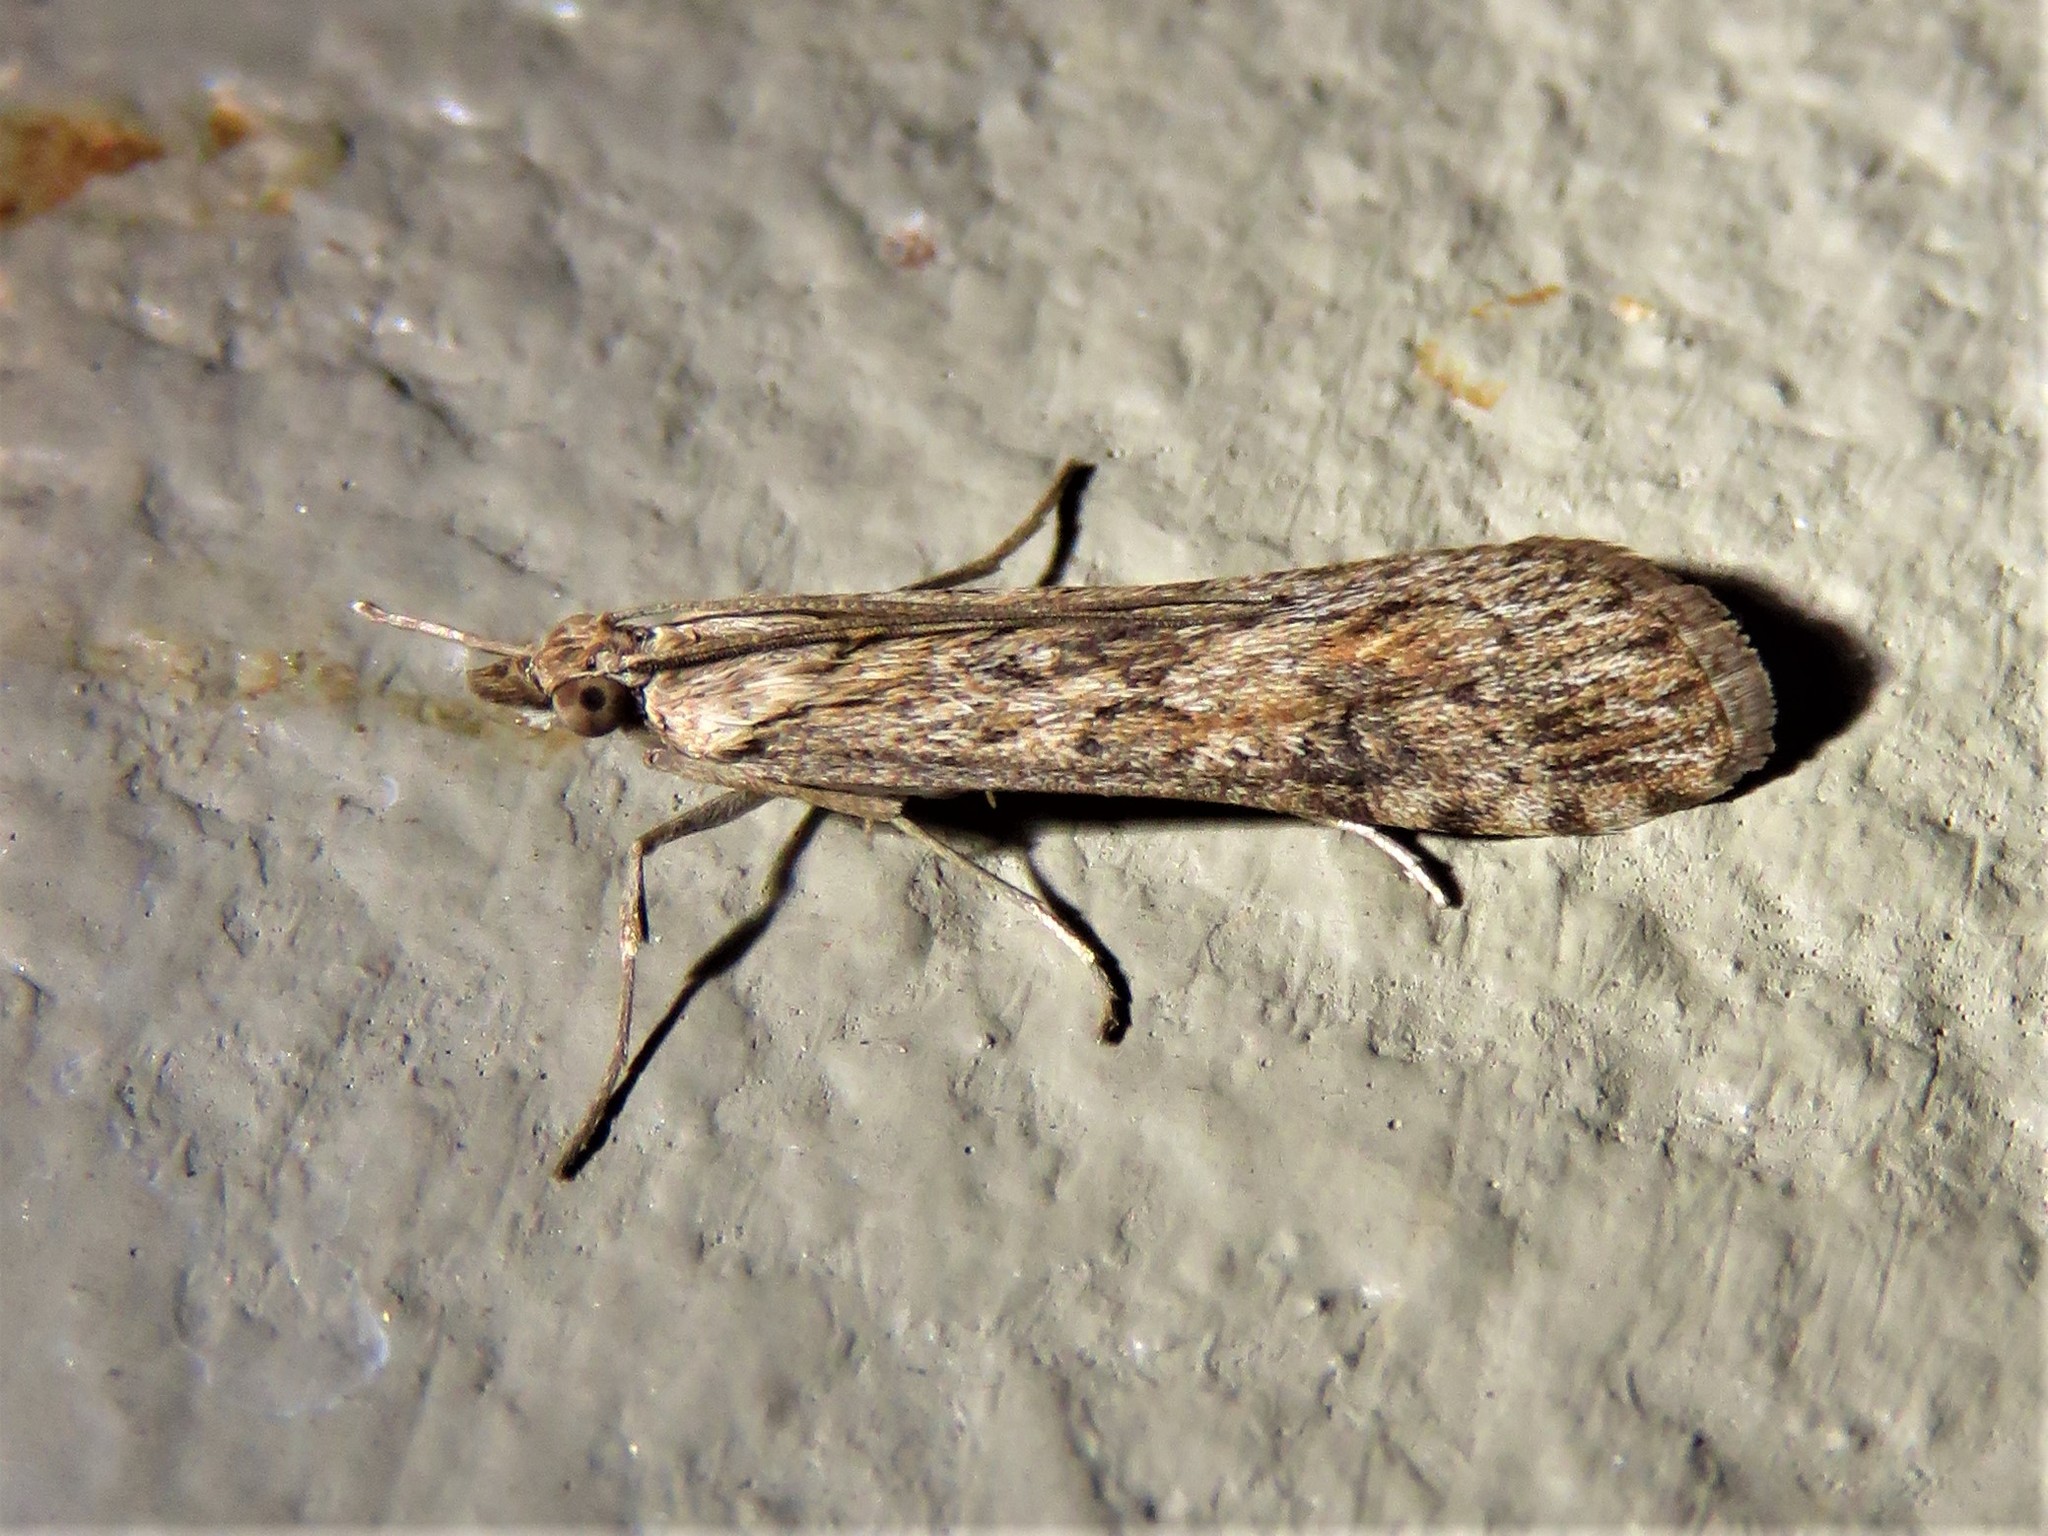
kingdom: Animalia
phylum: Arthropoda
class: Insecta
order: Lepidoptera
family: Crambidae
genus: Nomophila
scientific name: Nomophila nearctica
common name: American rush veneer
